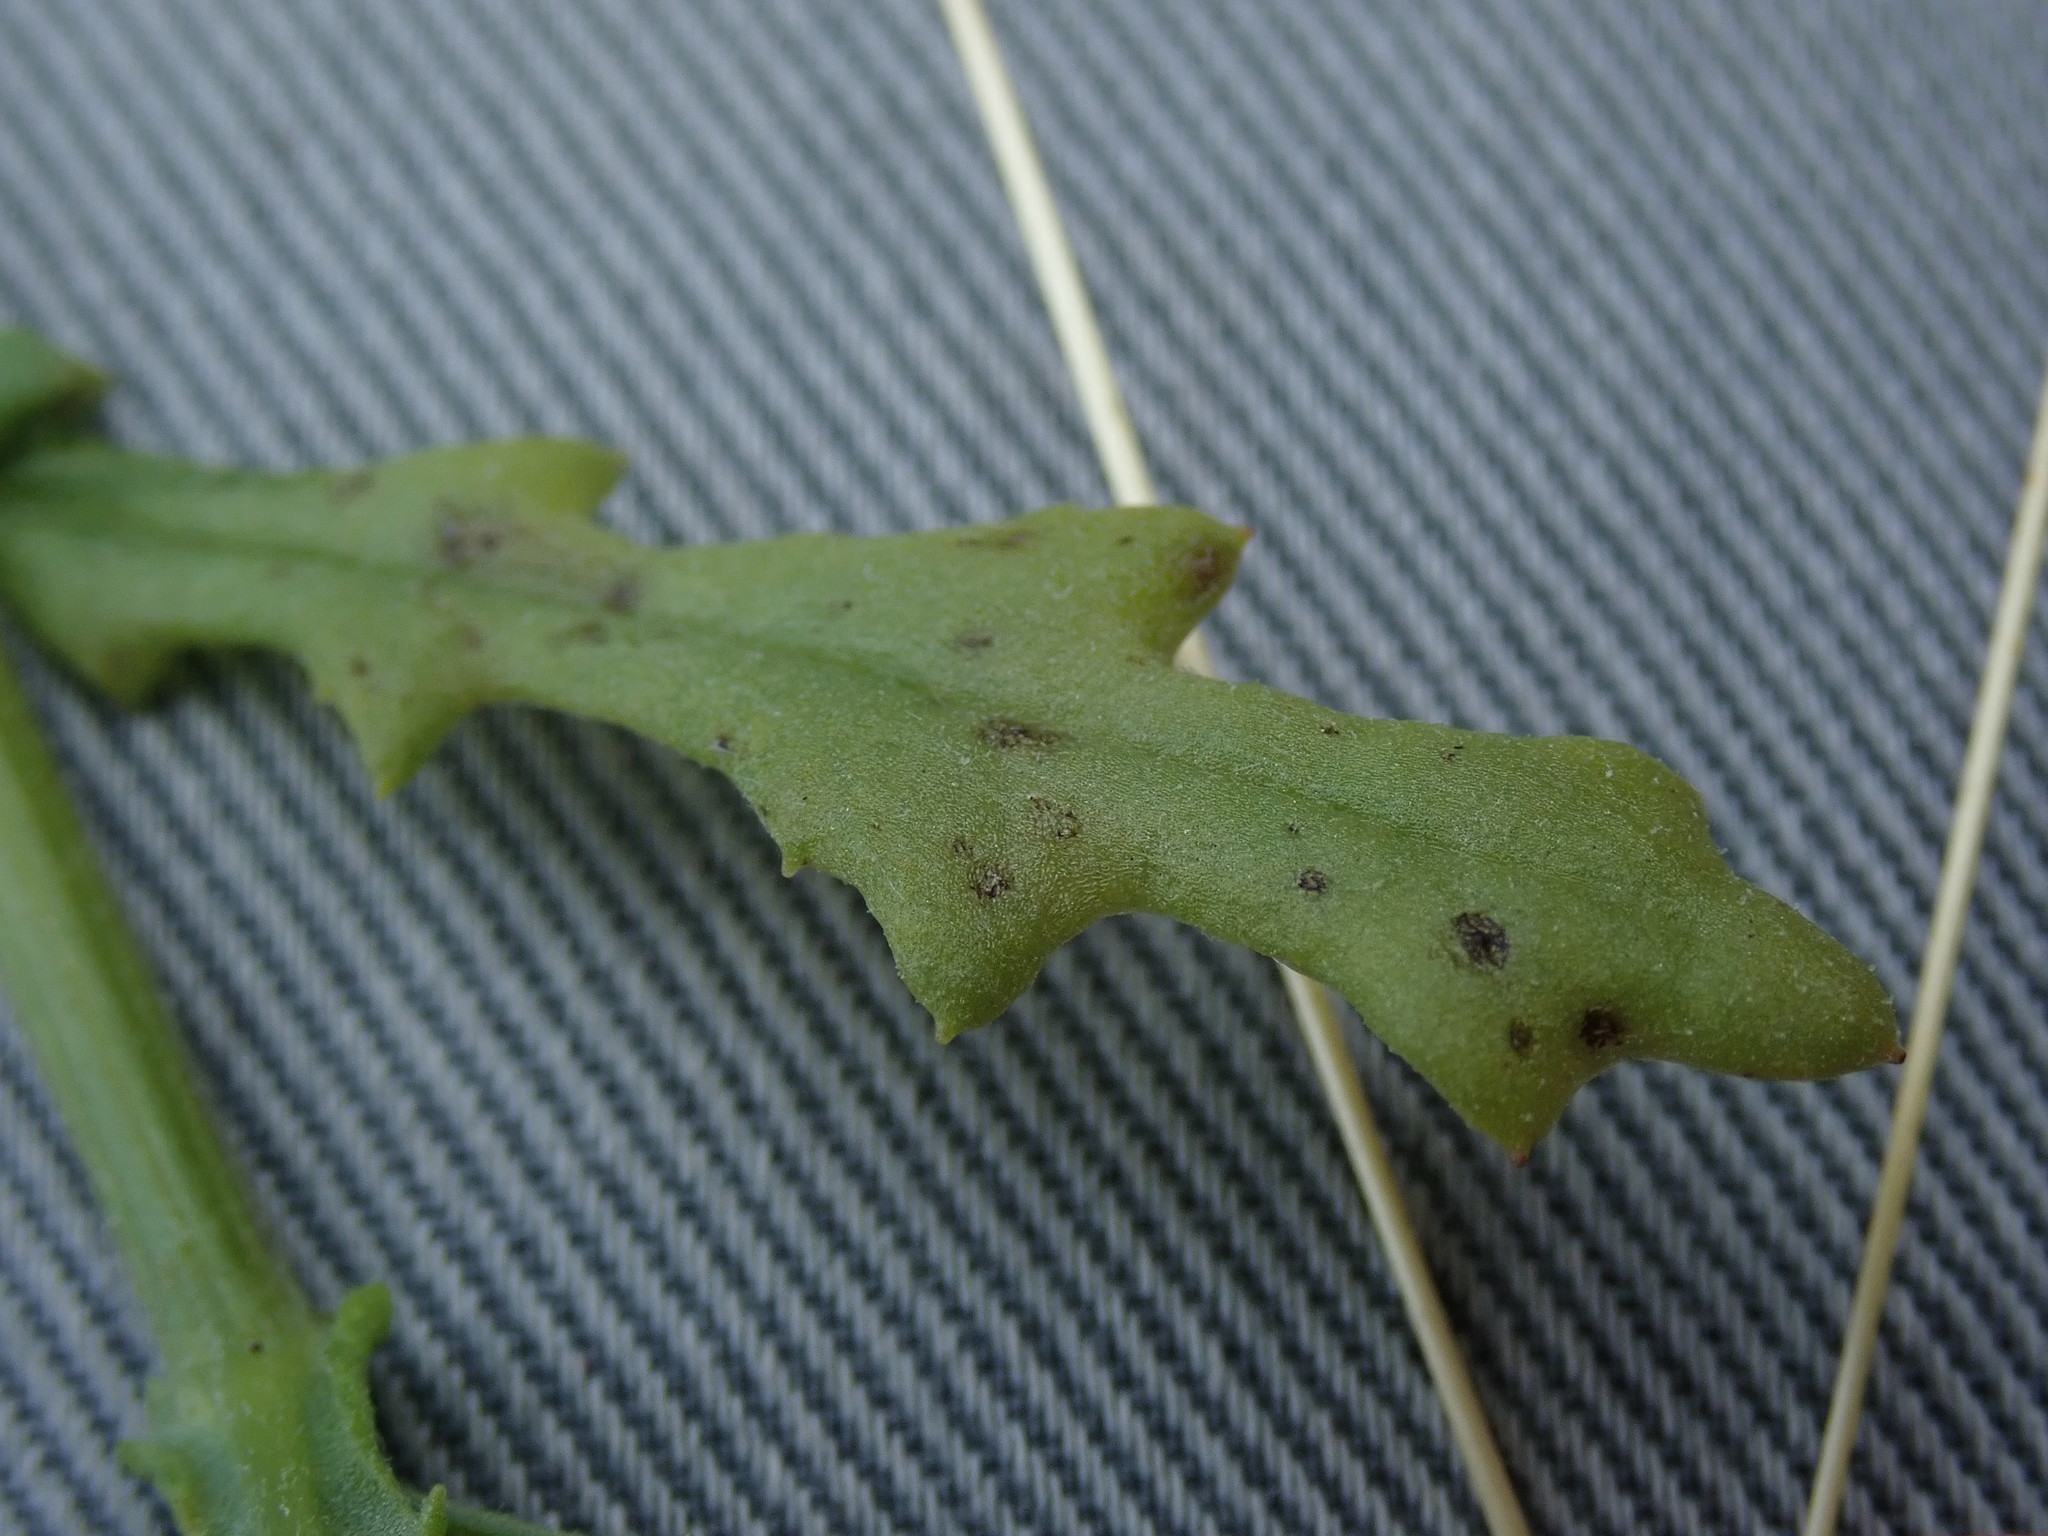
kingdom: Plantae
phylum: Tracheophyta
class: Magnoliopsida
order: Asterales
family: Asteraceae
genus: Senecio
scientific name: Senecio sylvaticus
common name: Woodland ragwort
